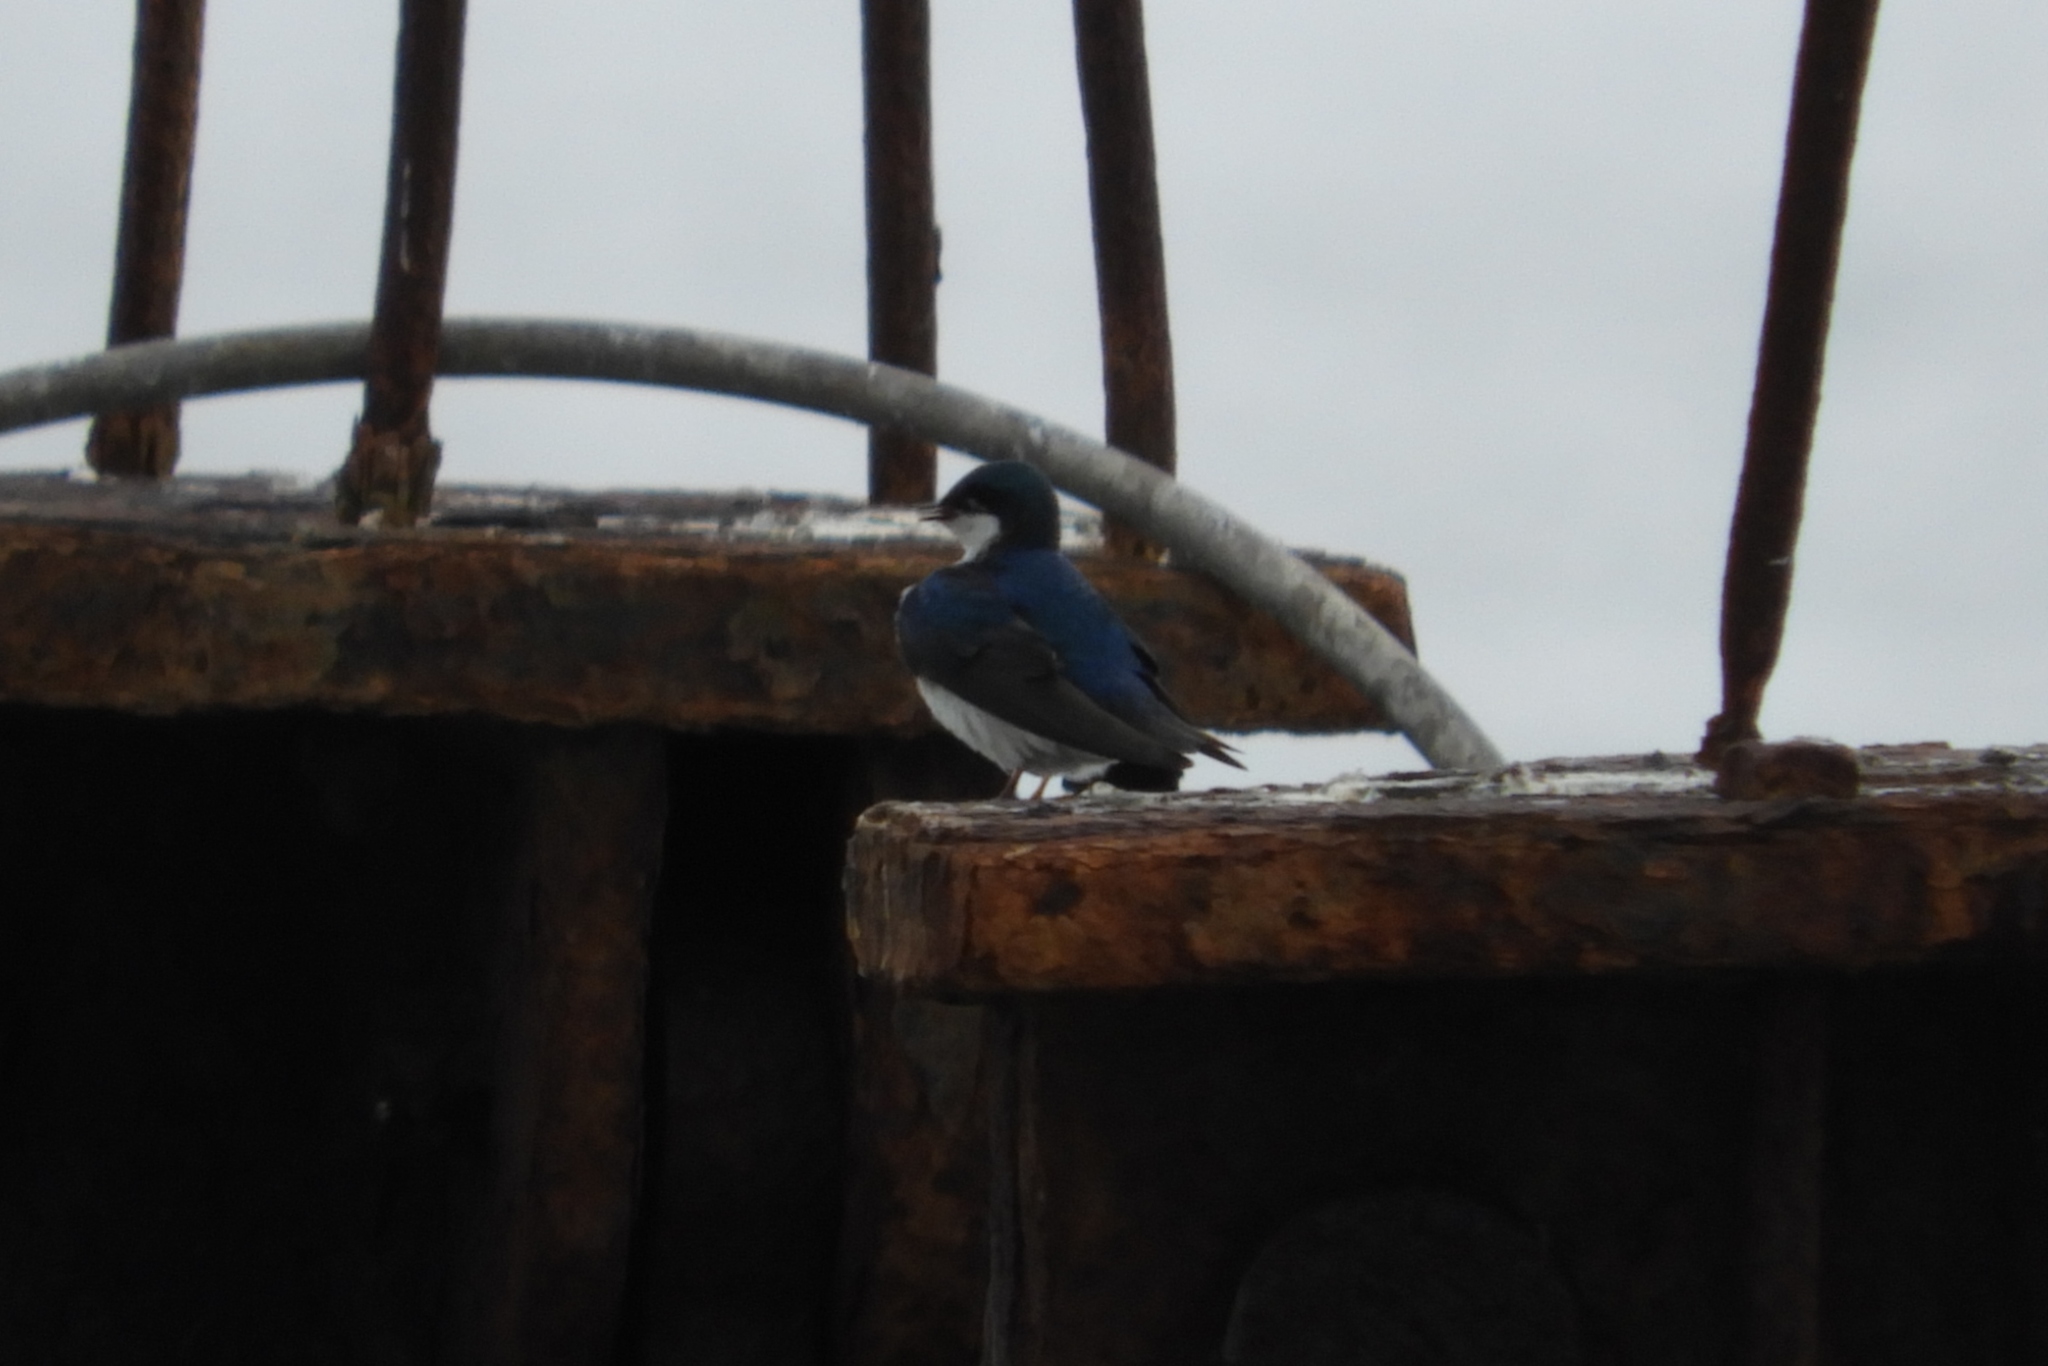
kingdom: Animalia
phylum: Chordata
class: Aves
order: Passeriformes
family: Hirundinidae
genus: Tachycineta
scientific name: Tachycineta bicolor
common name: Tree swallow
